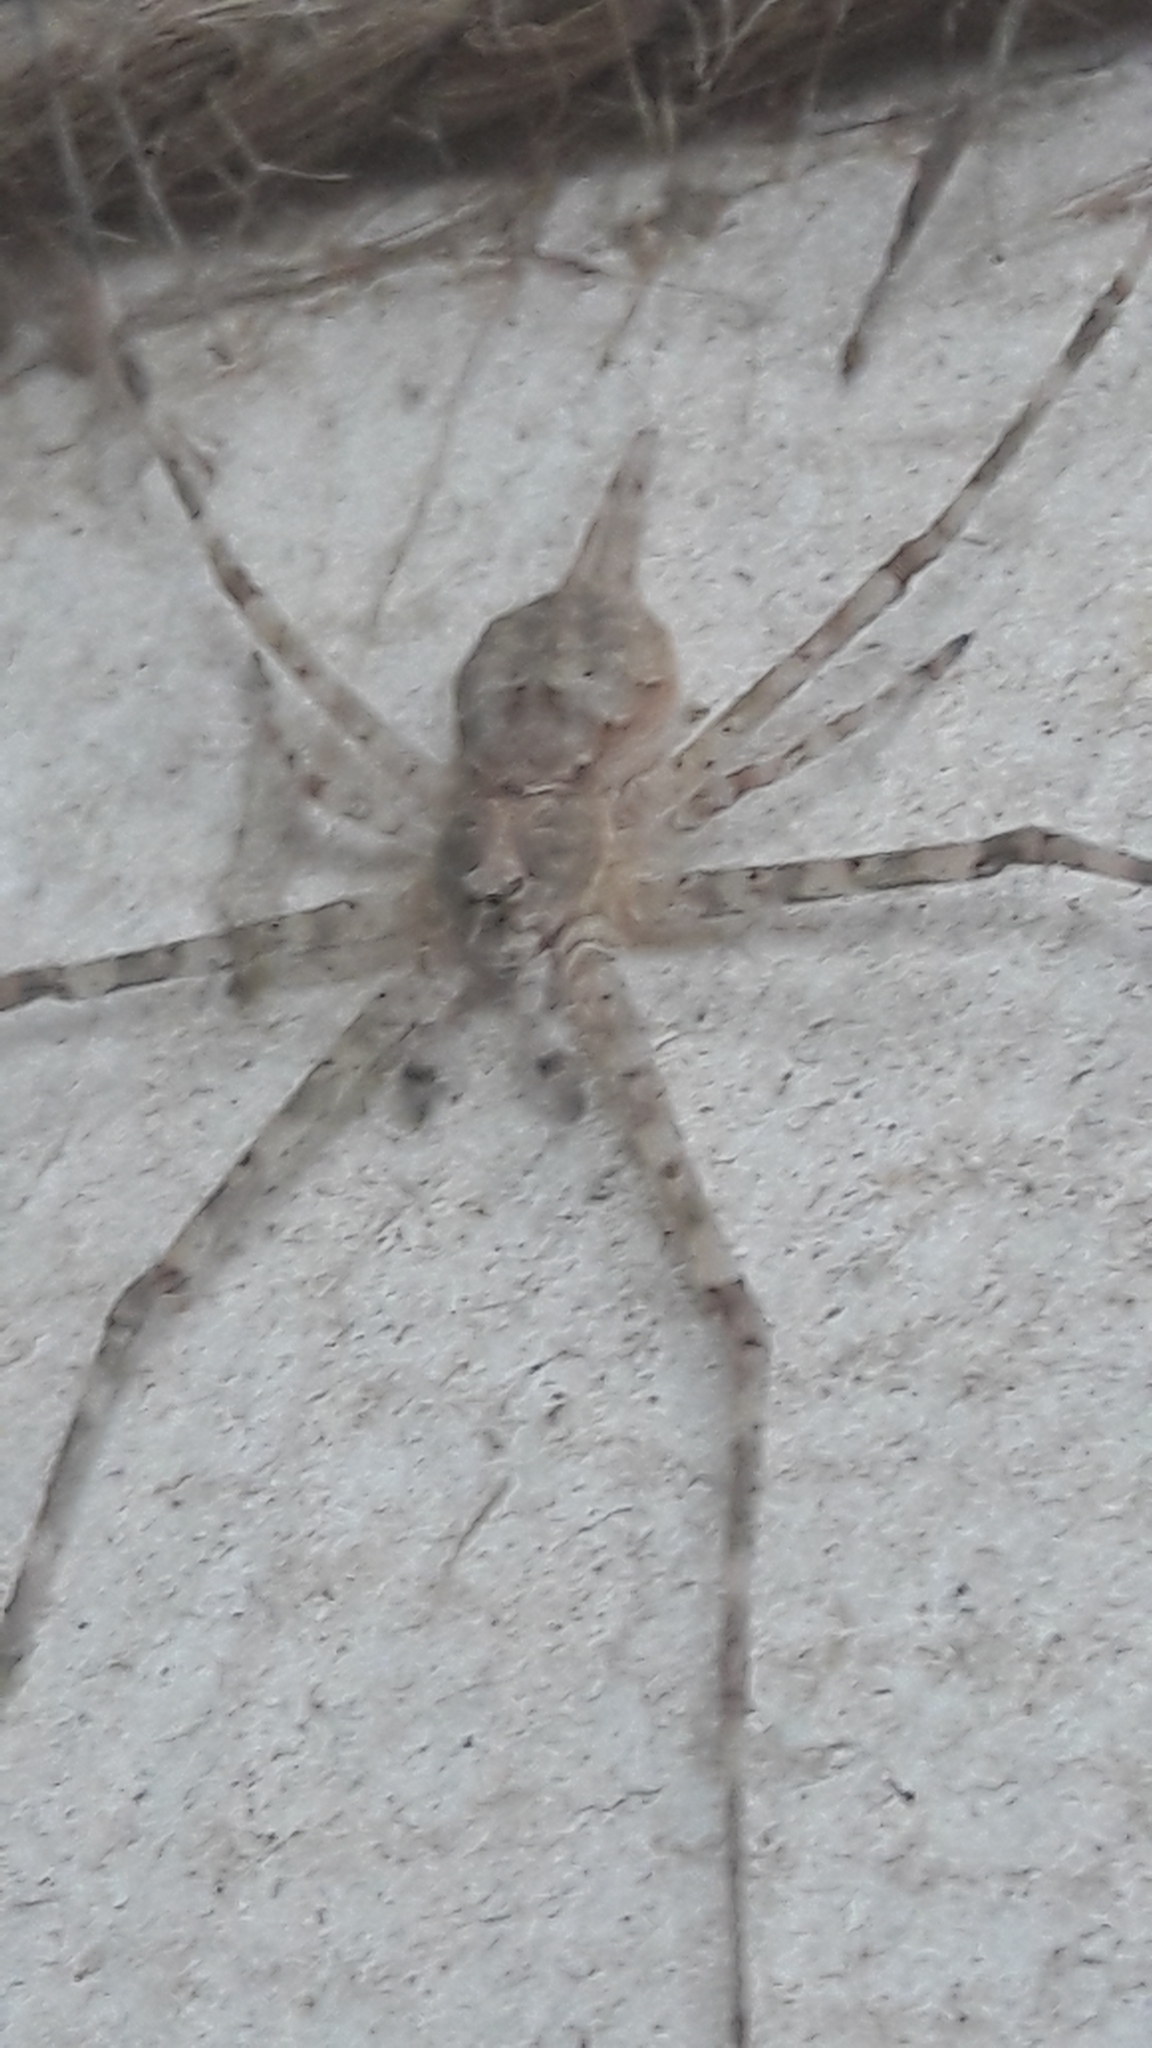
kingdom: Animalia
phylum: Arthropoda
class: Arachnida
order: Araneae
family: Hersiliidae
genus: Hersilia
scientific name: Hersilia caudata
